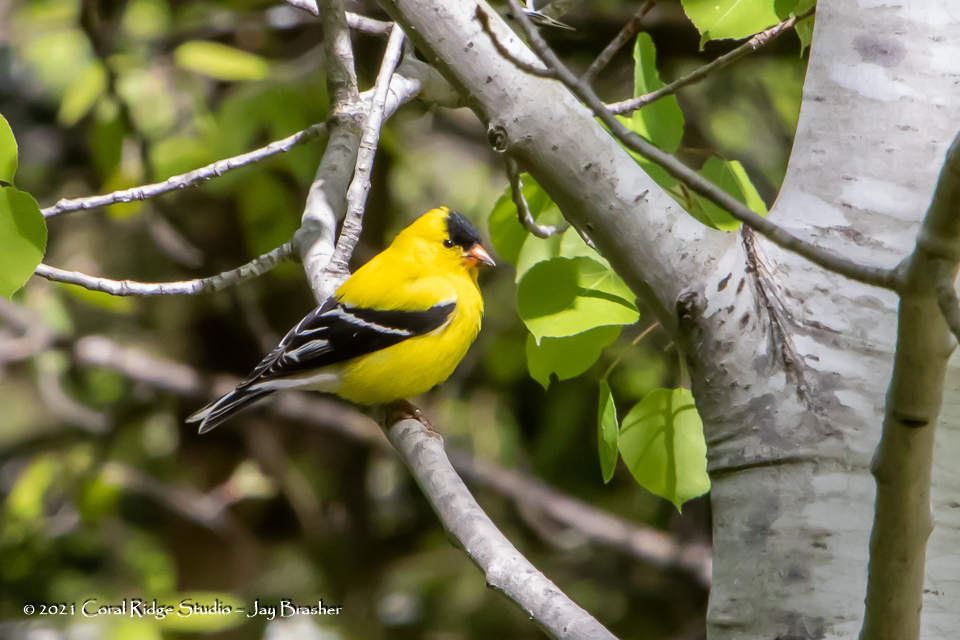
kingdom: Animalia
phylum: Chordata
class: Aves
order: Passeriformes
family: Fringillidae
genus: Spinus
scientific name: Spinus tristis
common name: American goldfinch
